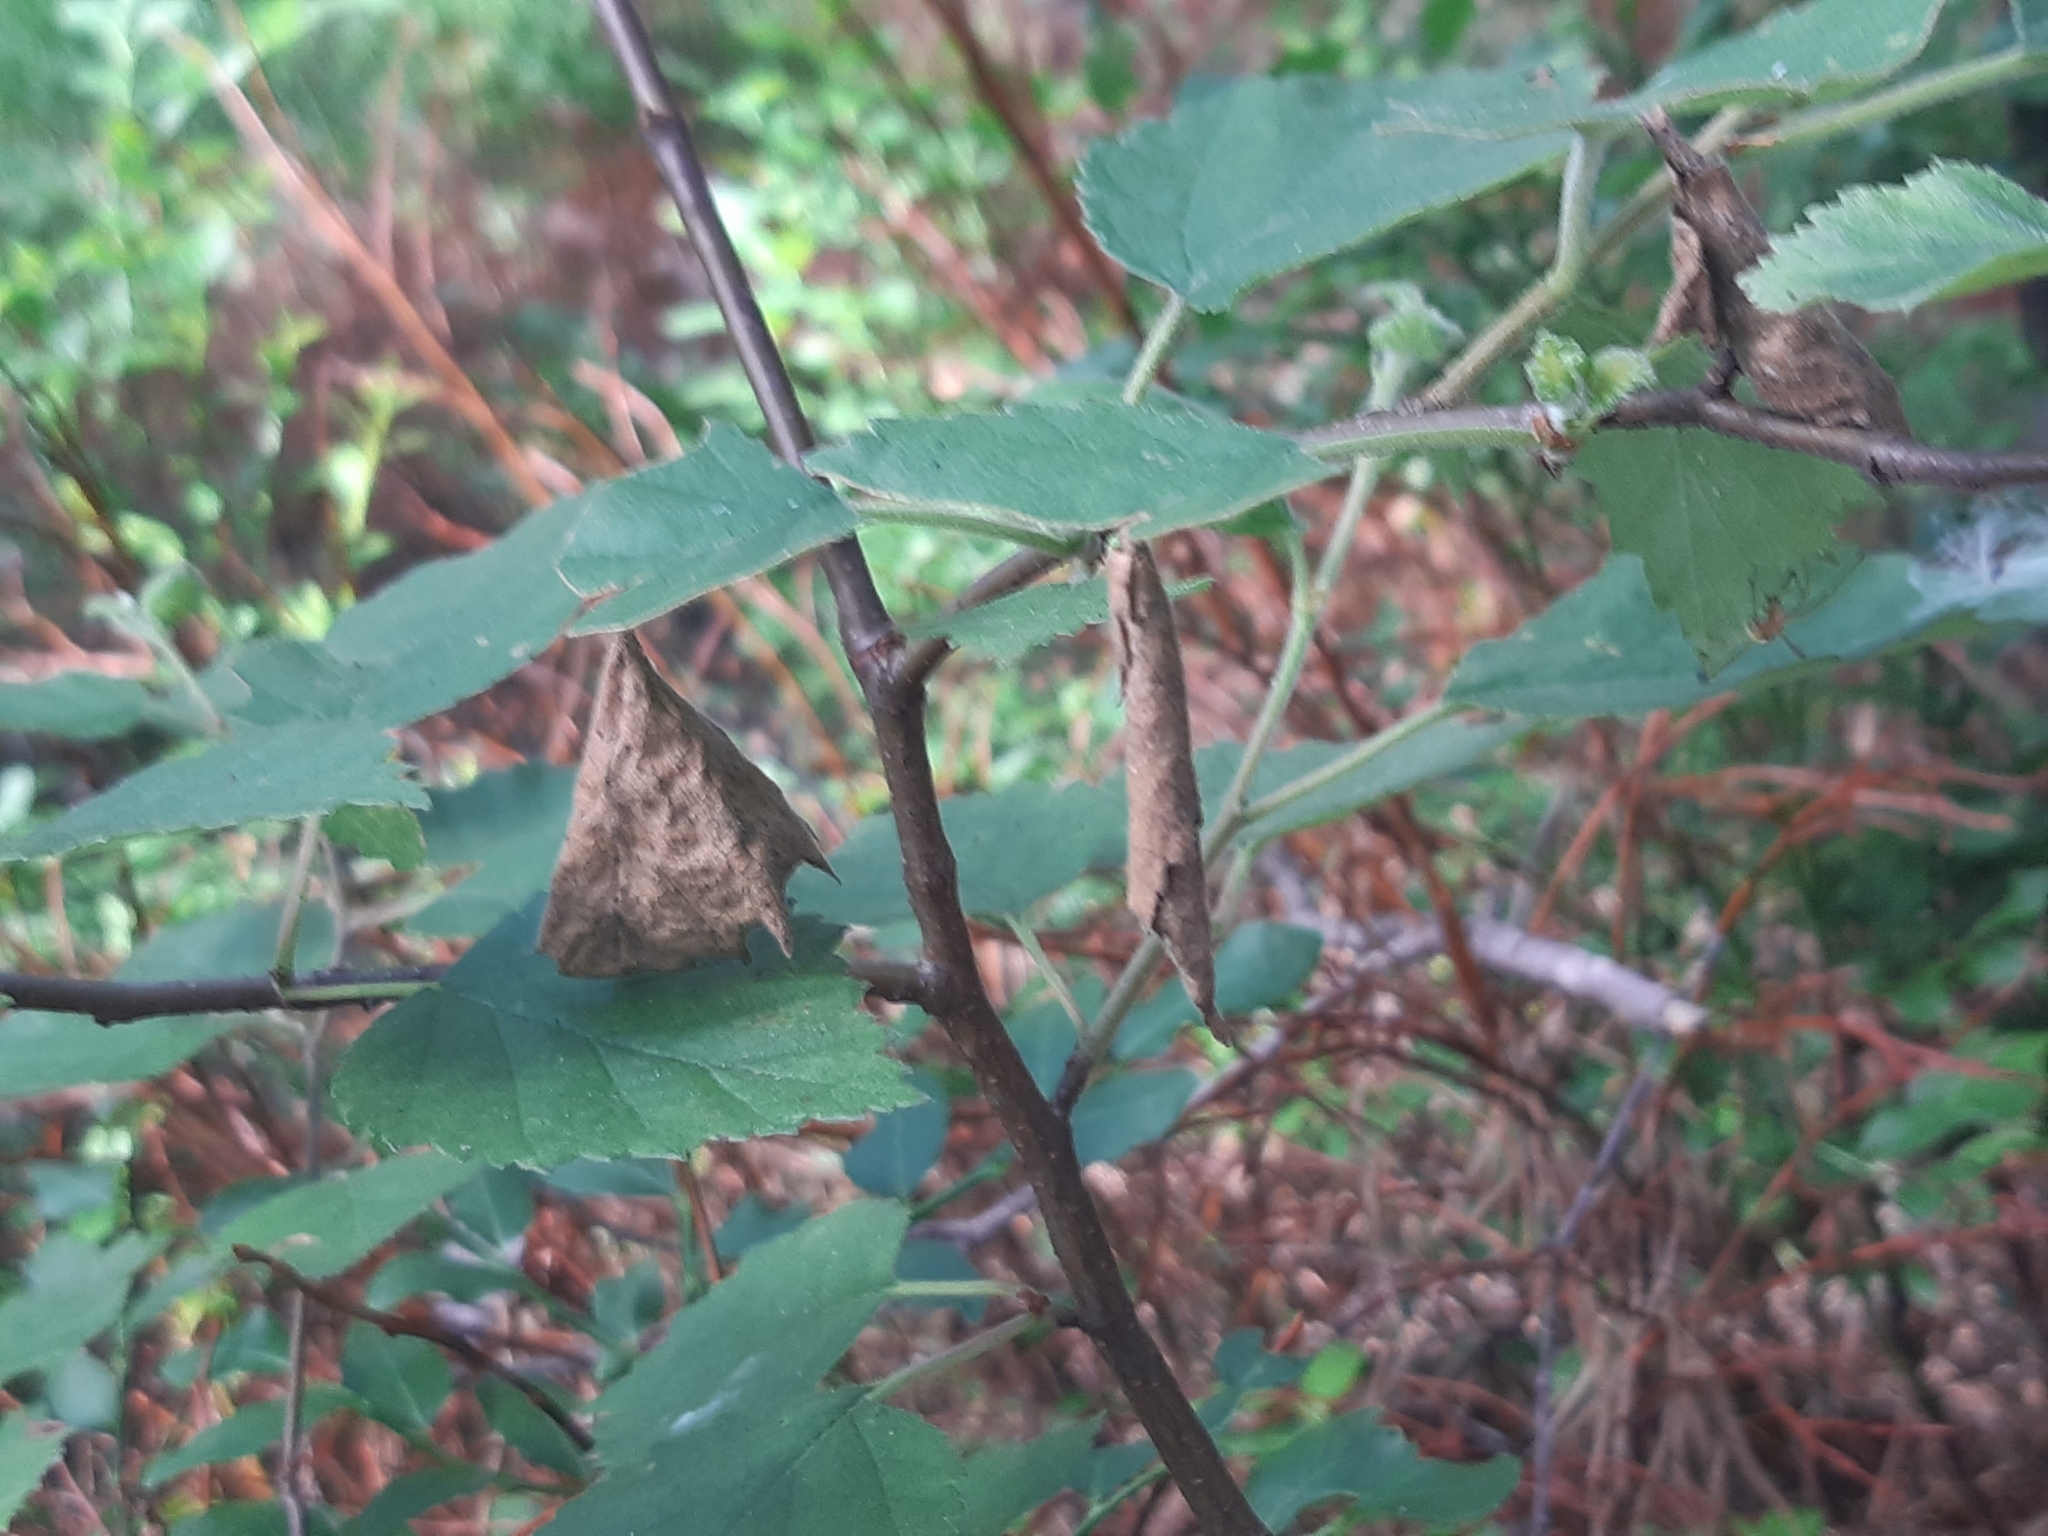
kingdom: Animalia
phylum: Arthropoda
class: Insecta
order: Coleoptera
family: Attelabidae
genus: Apoderus
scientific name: Apoderus coryli
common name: Hazel leaf roller
